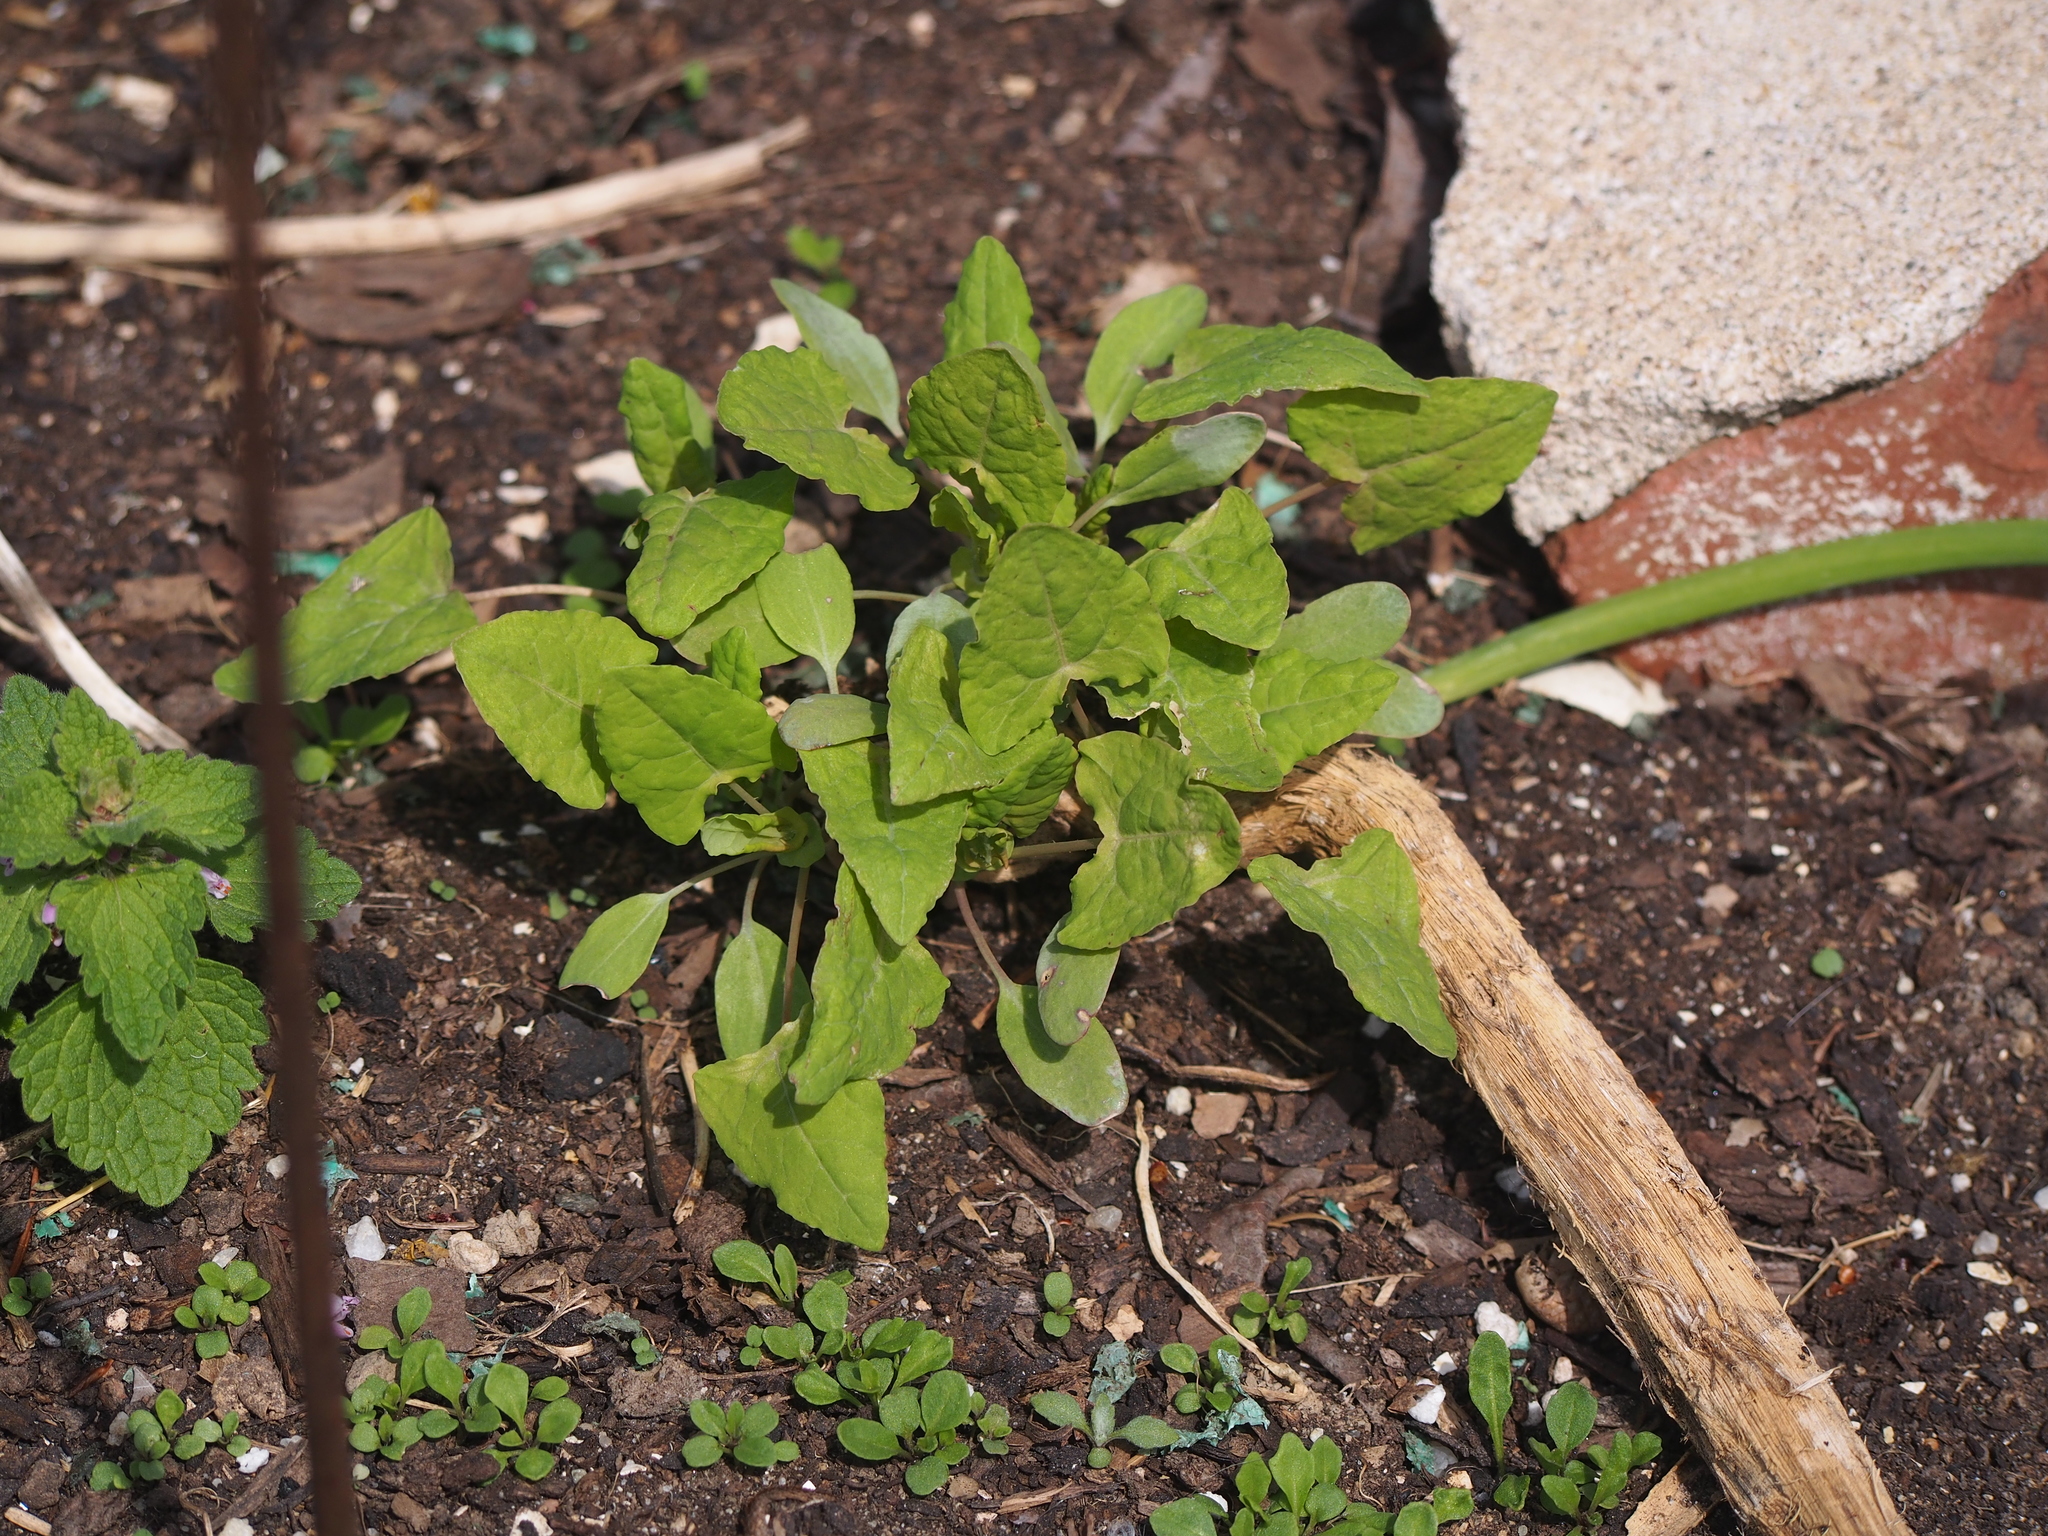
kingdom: Plantae
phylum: Tracheophyta
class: Magnoliopsida
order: Caryophyllales
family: Polygonaceae
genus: Persicaria
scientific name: Persicaria perfoliata
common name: Asiatic tearthumb
